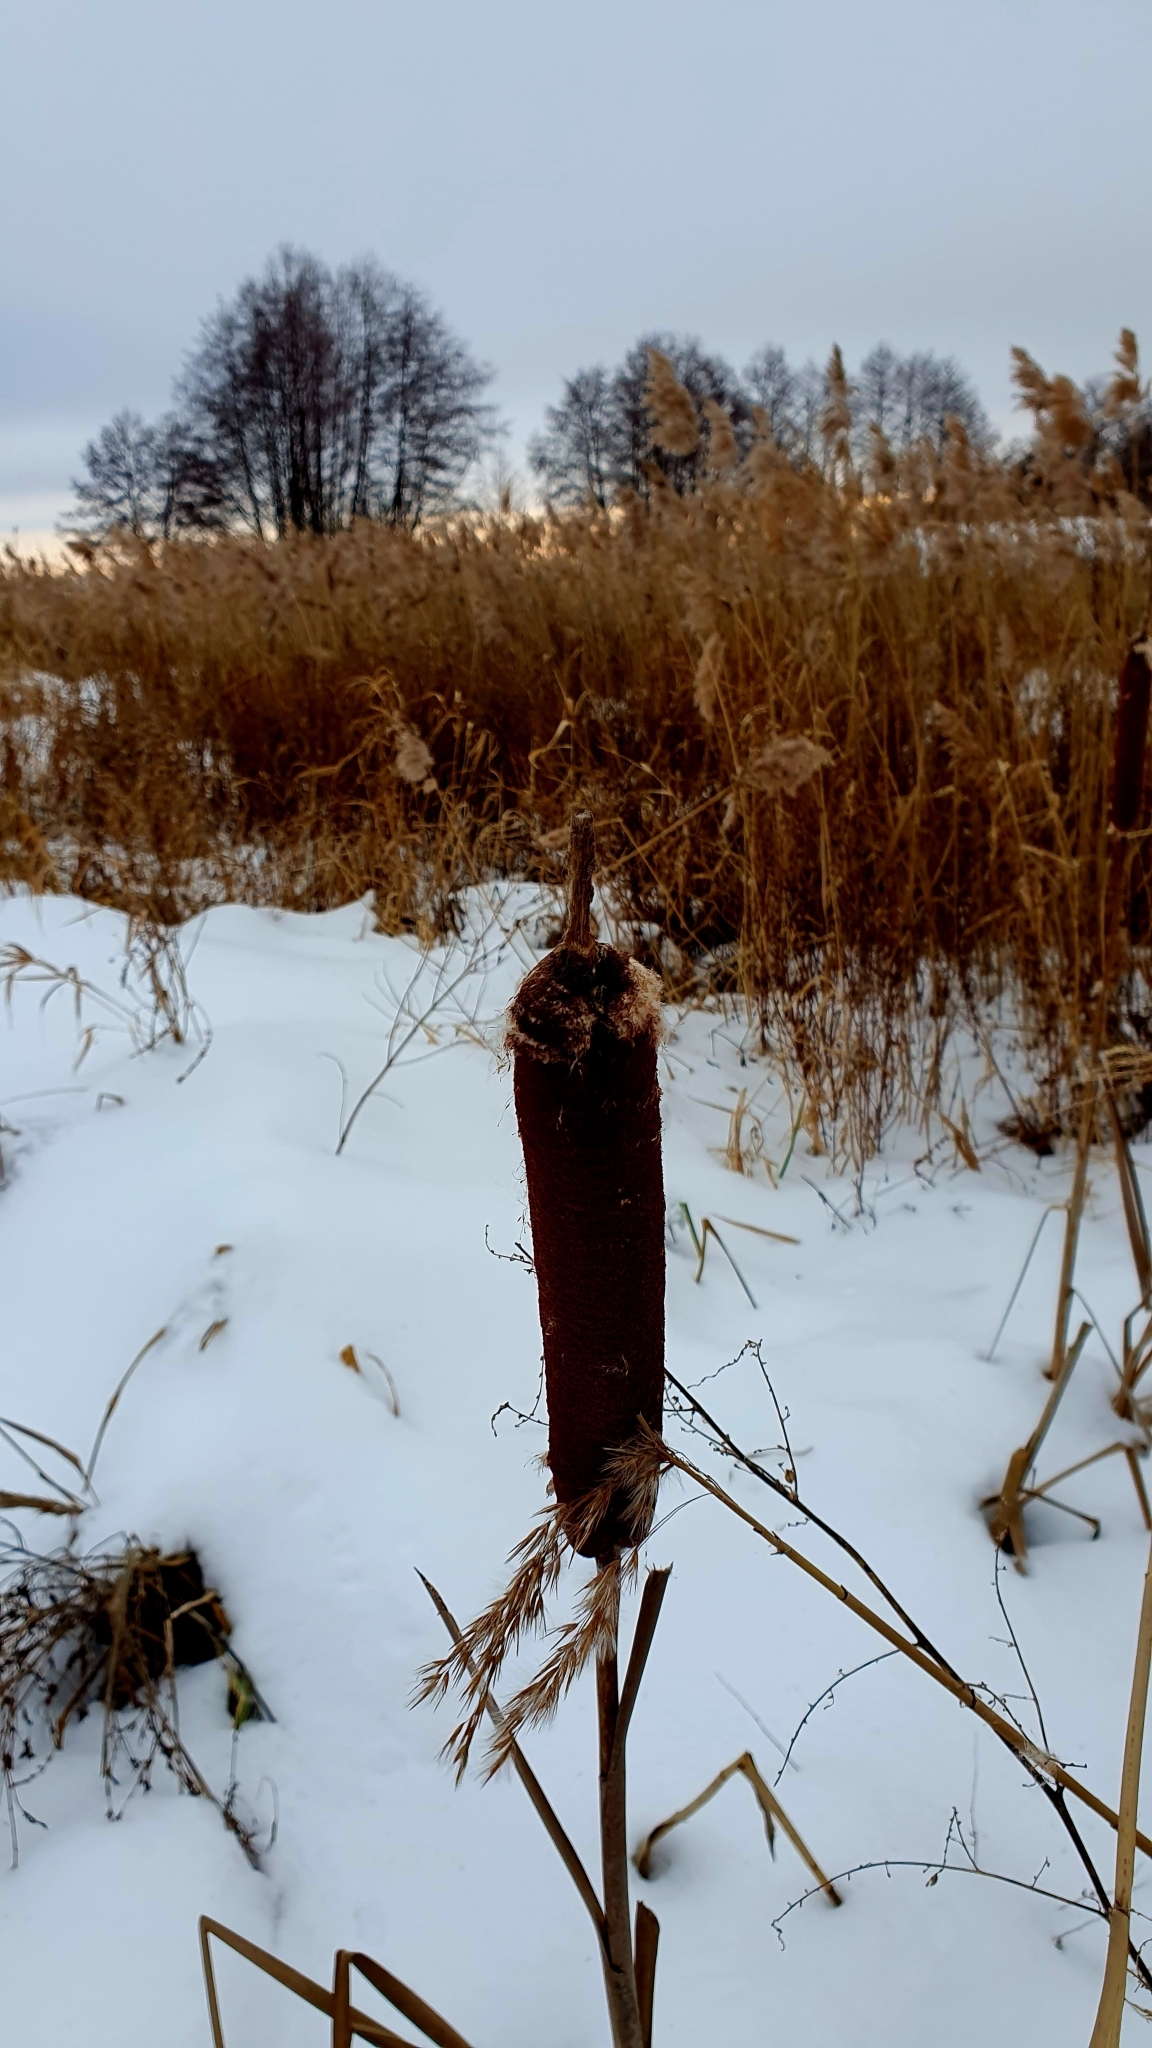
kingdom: Plantae
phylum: Tracheophyta
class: Liliopsida
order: Poales
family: Typhaceae
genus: Typha
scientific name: Typha latifolia
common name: Broadleaf cattail
